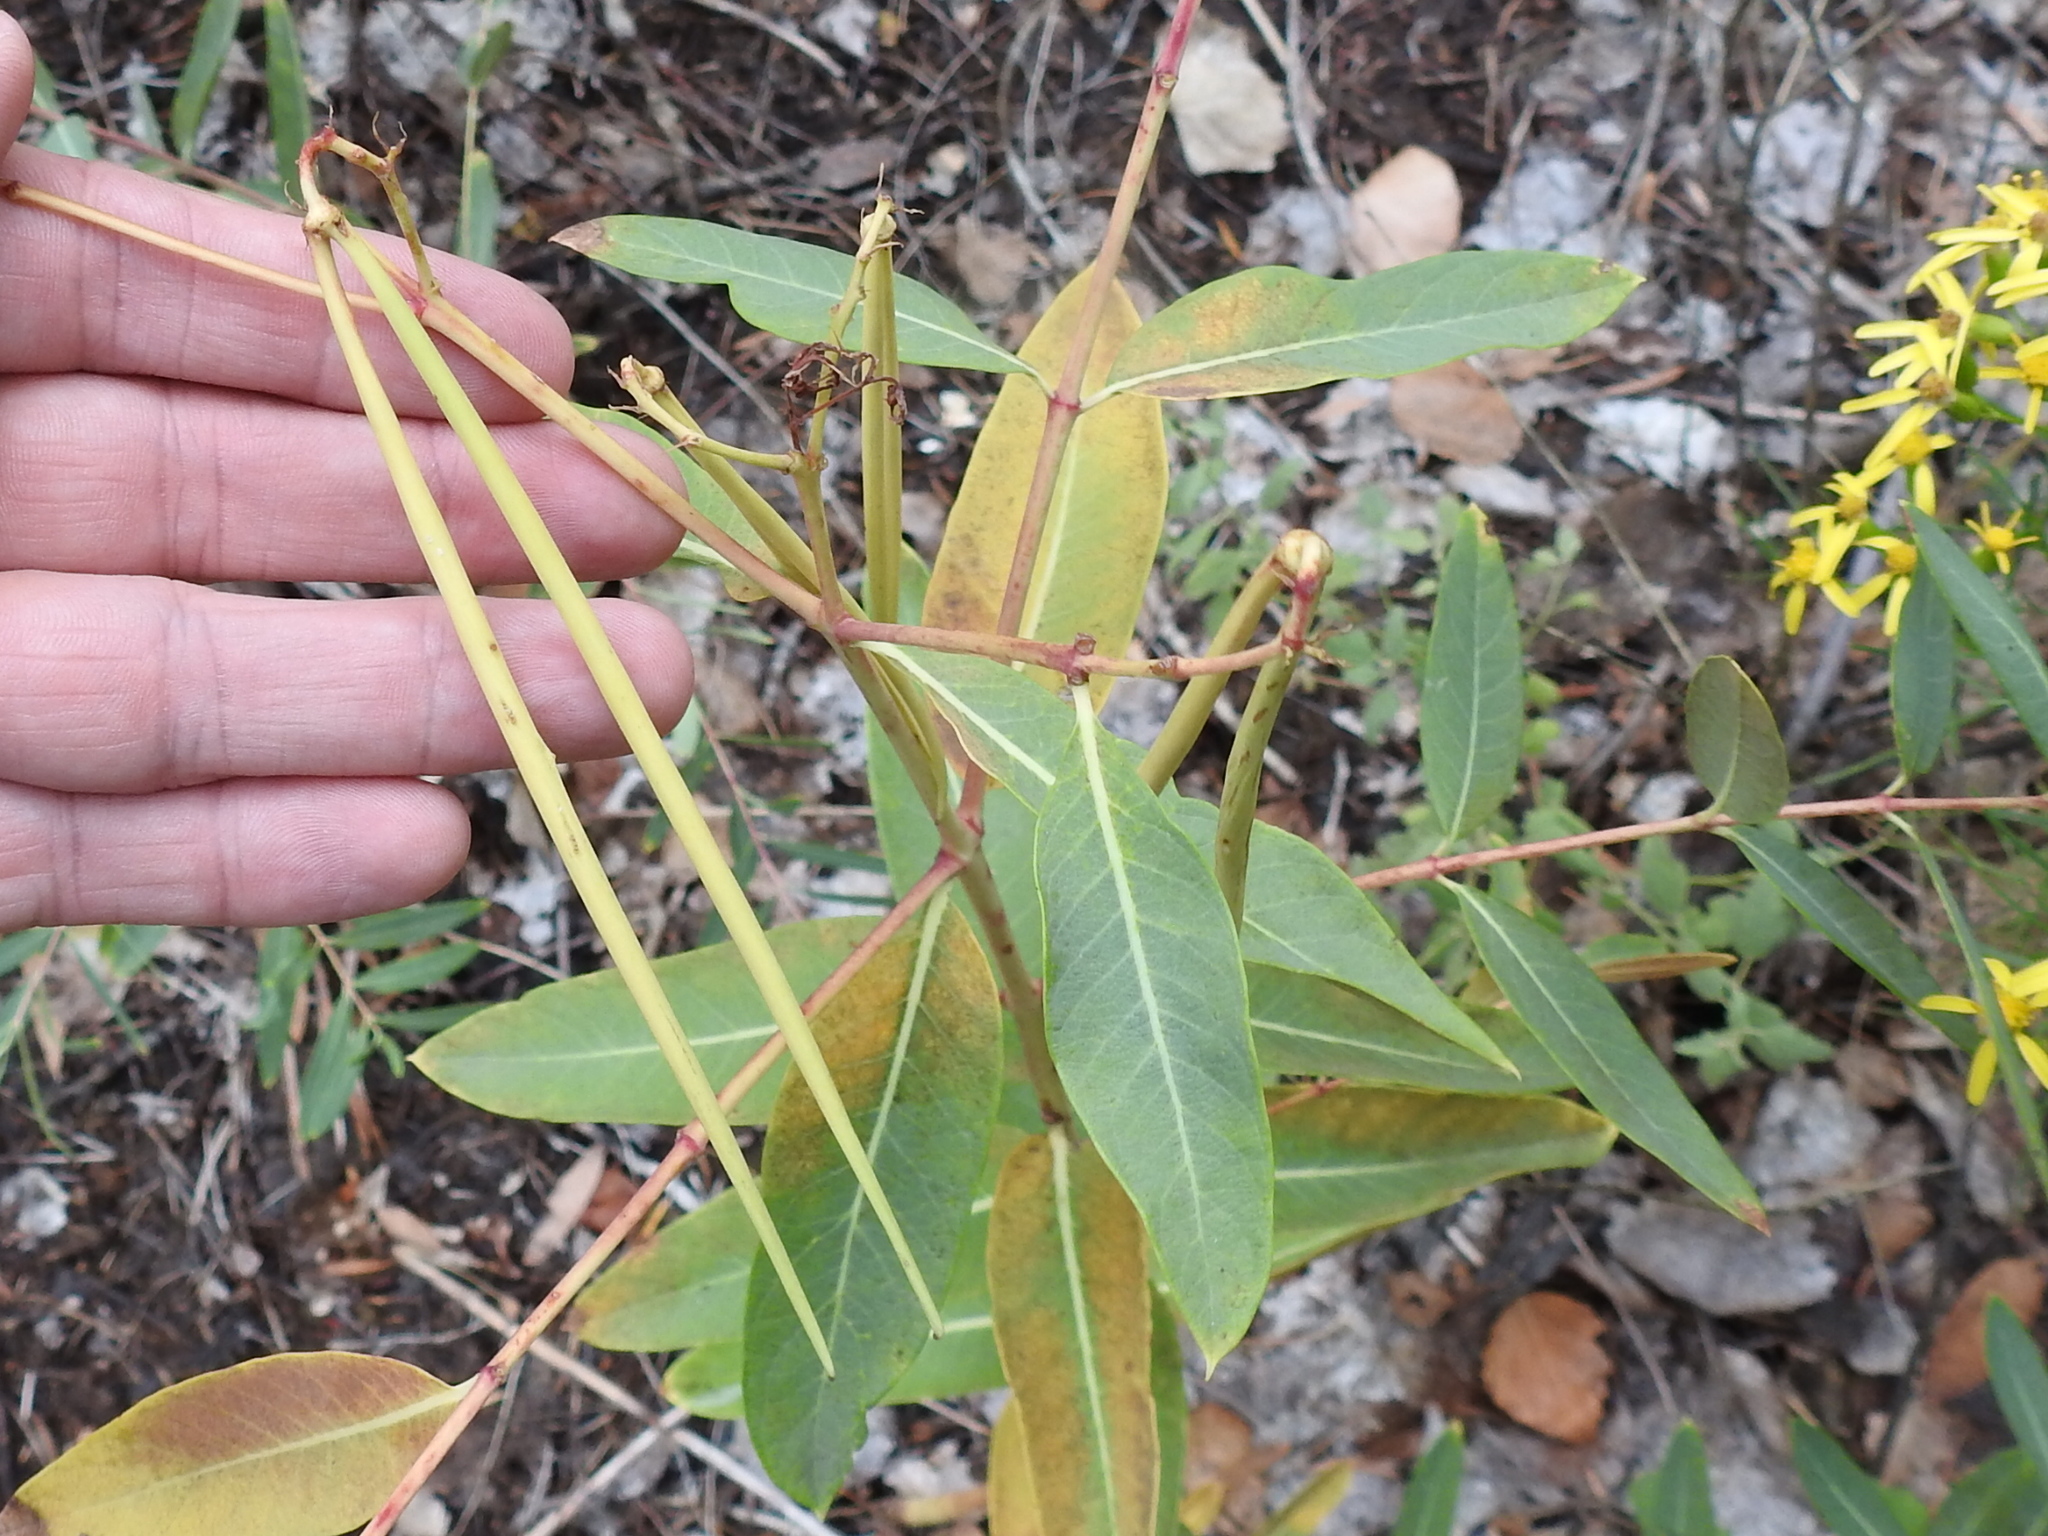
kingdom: Plantae
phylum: Tracheophyta
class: Magnoliopsida
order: Gentianales
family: Apocynaceae
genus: Apocynum
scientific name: Apocynum cannabinum
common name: Hemp dogbane
